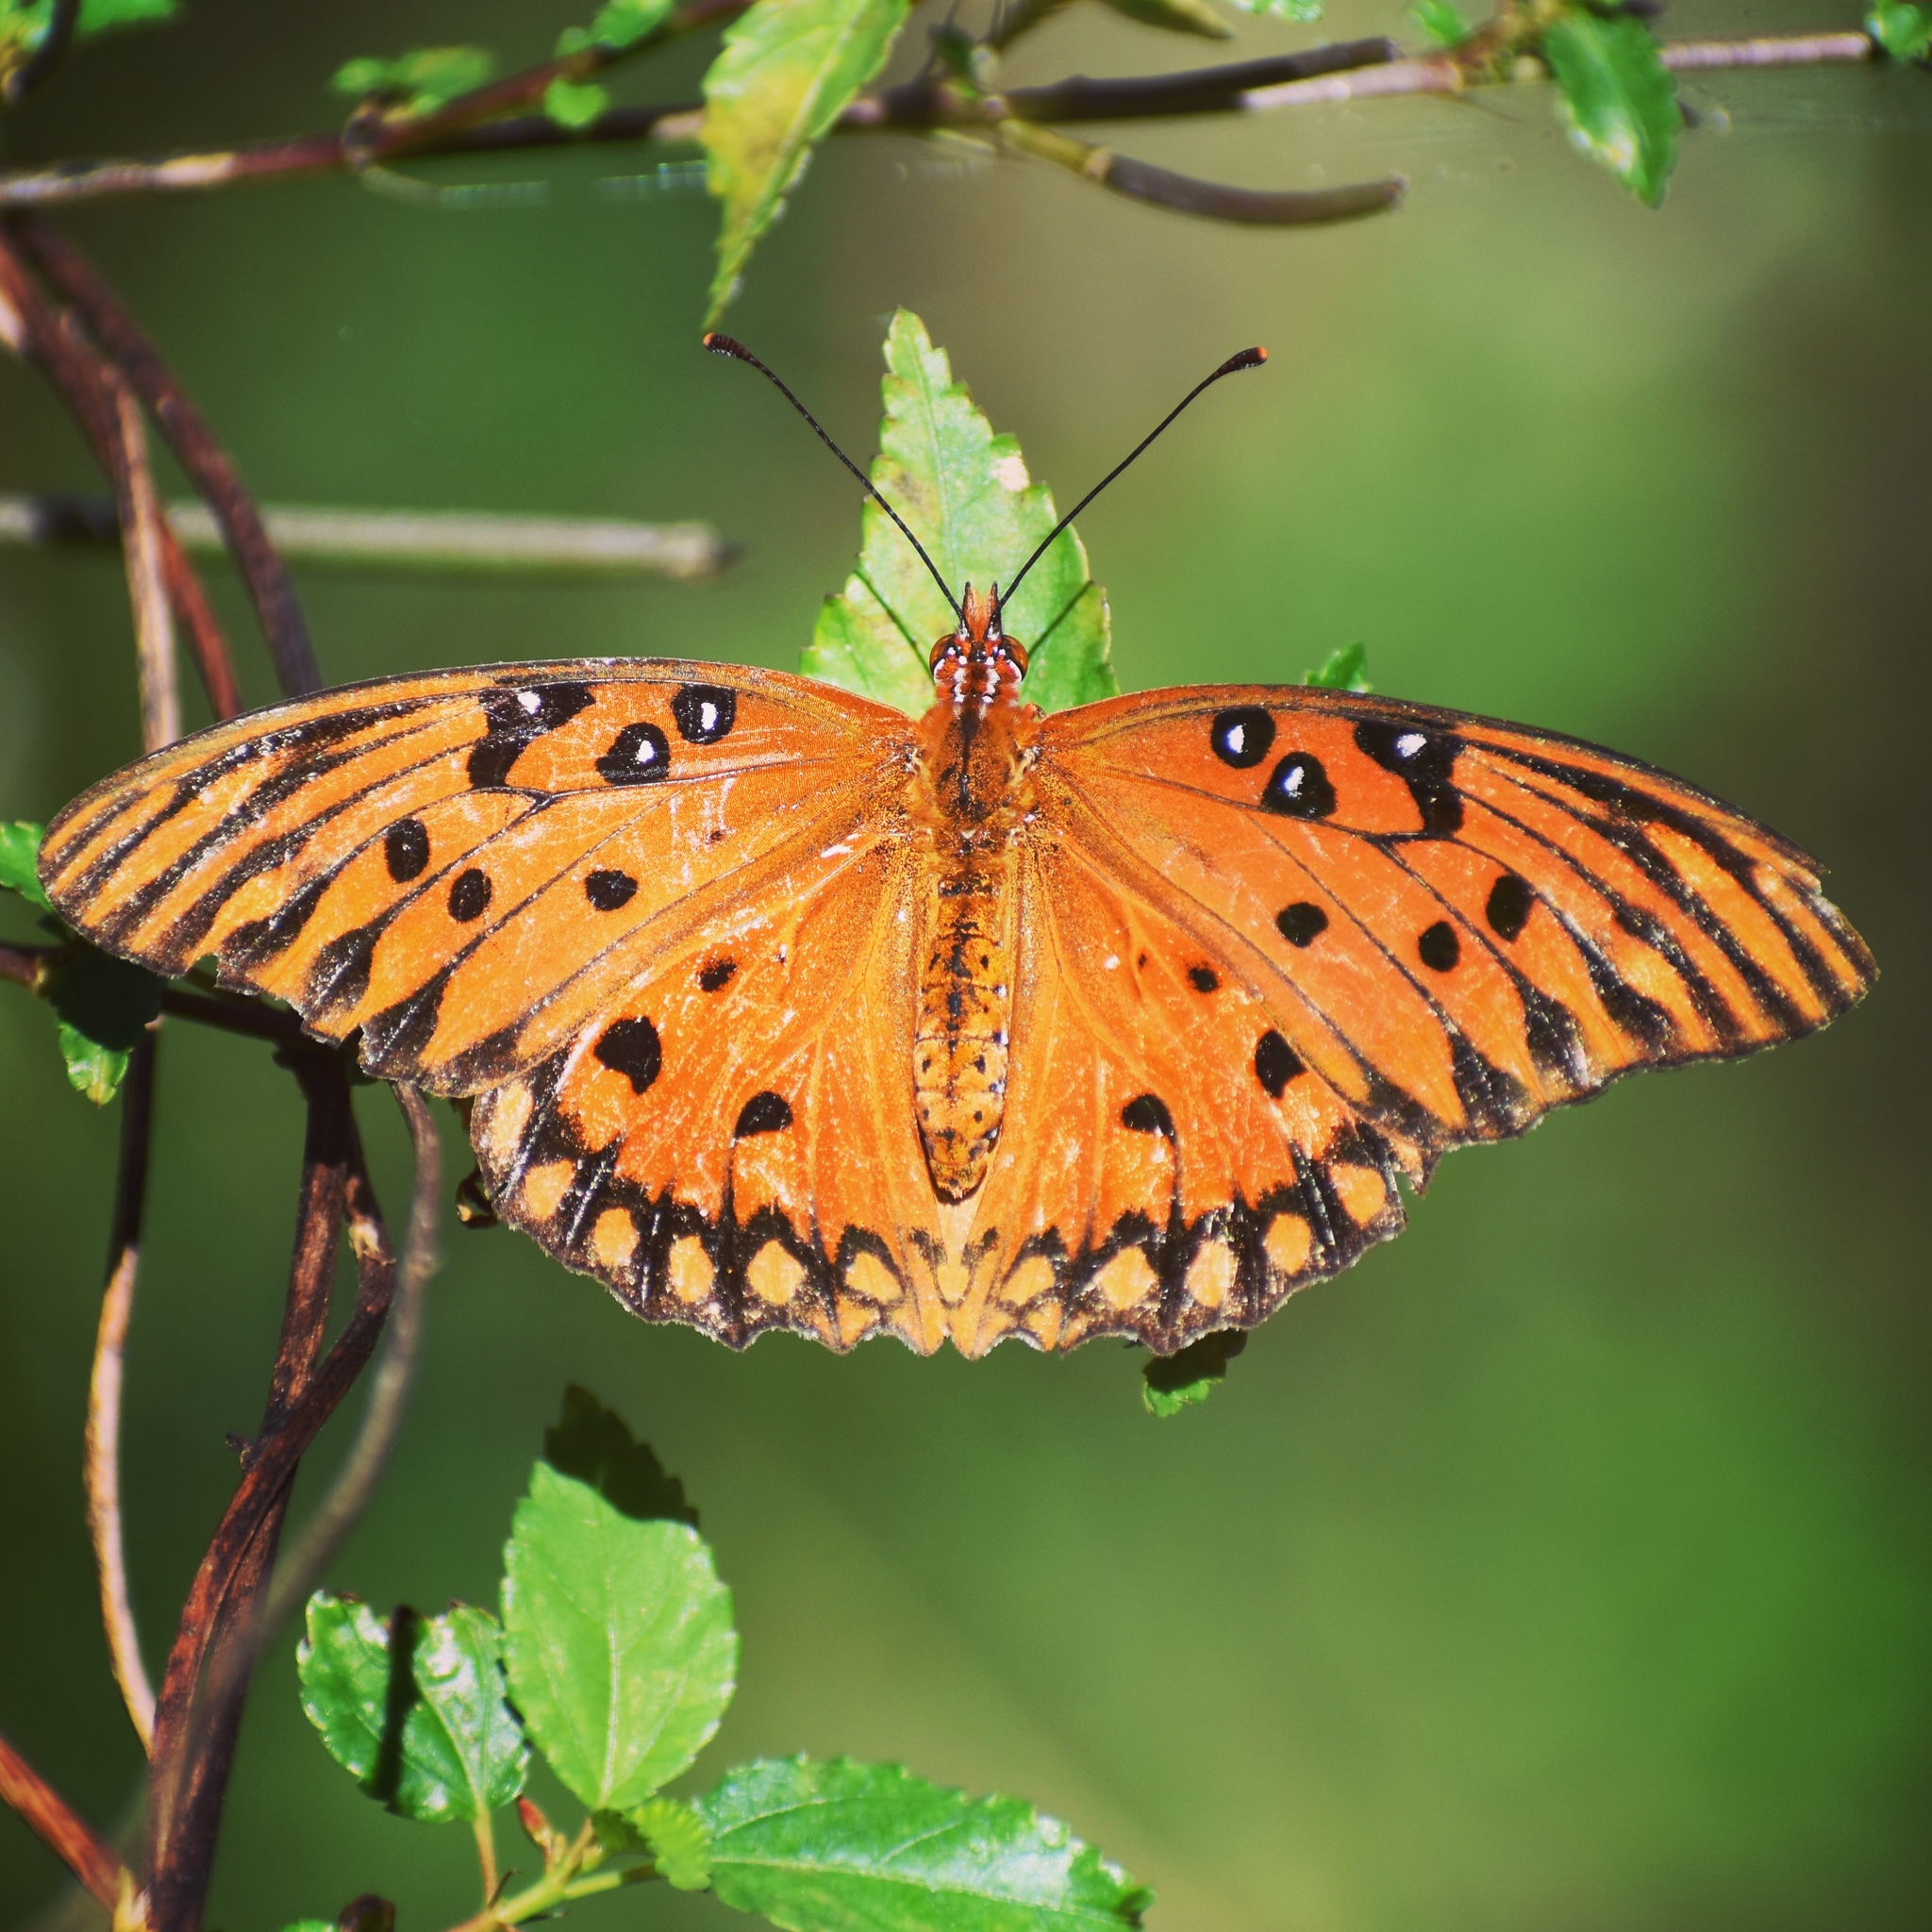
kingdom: Animalia
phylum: Arthropoda
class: Insecta
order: Lepidoptera
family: Nymphalidae
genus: Dione
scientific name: Dione vanillae
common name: Gulf fritillary
